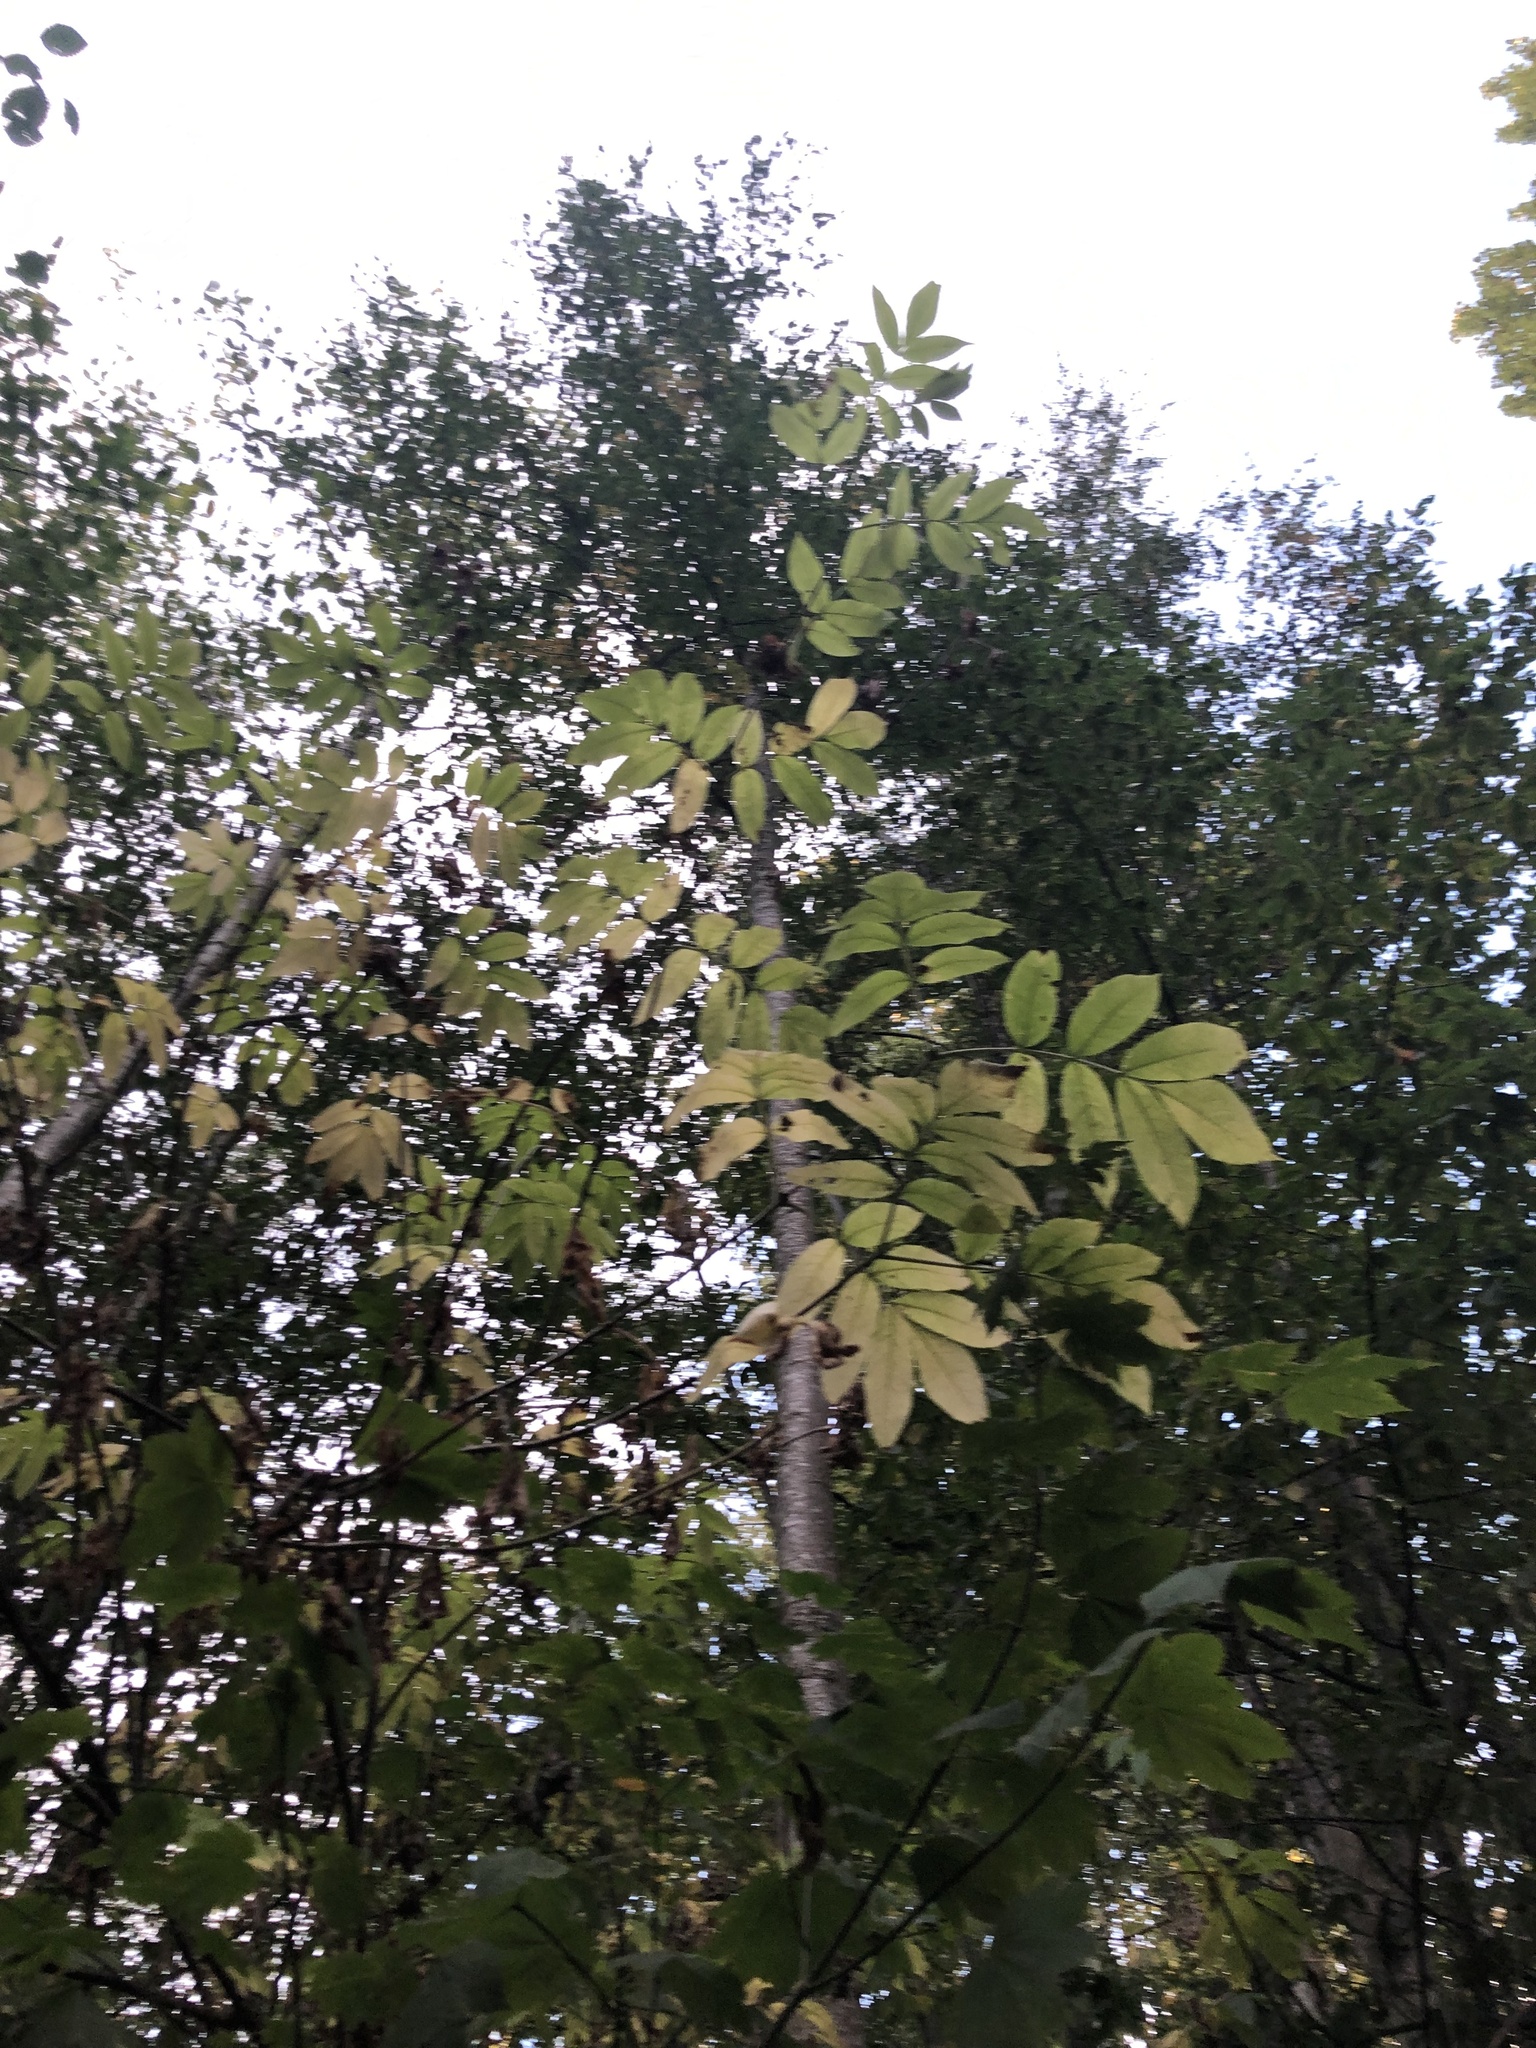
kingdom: Plantae
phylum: Tracheophyta
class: Magnoliopsida
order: Dipsacales
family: Viburnaceae
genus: Sambucus
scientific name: Sambucus racemosa
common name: Red-berried elder
